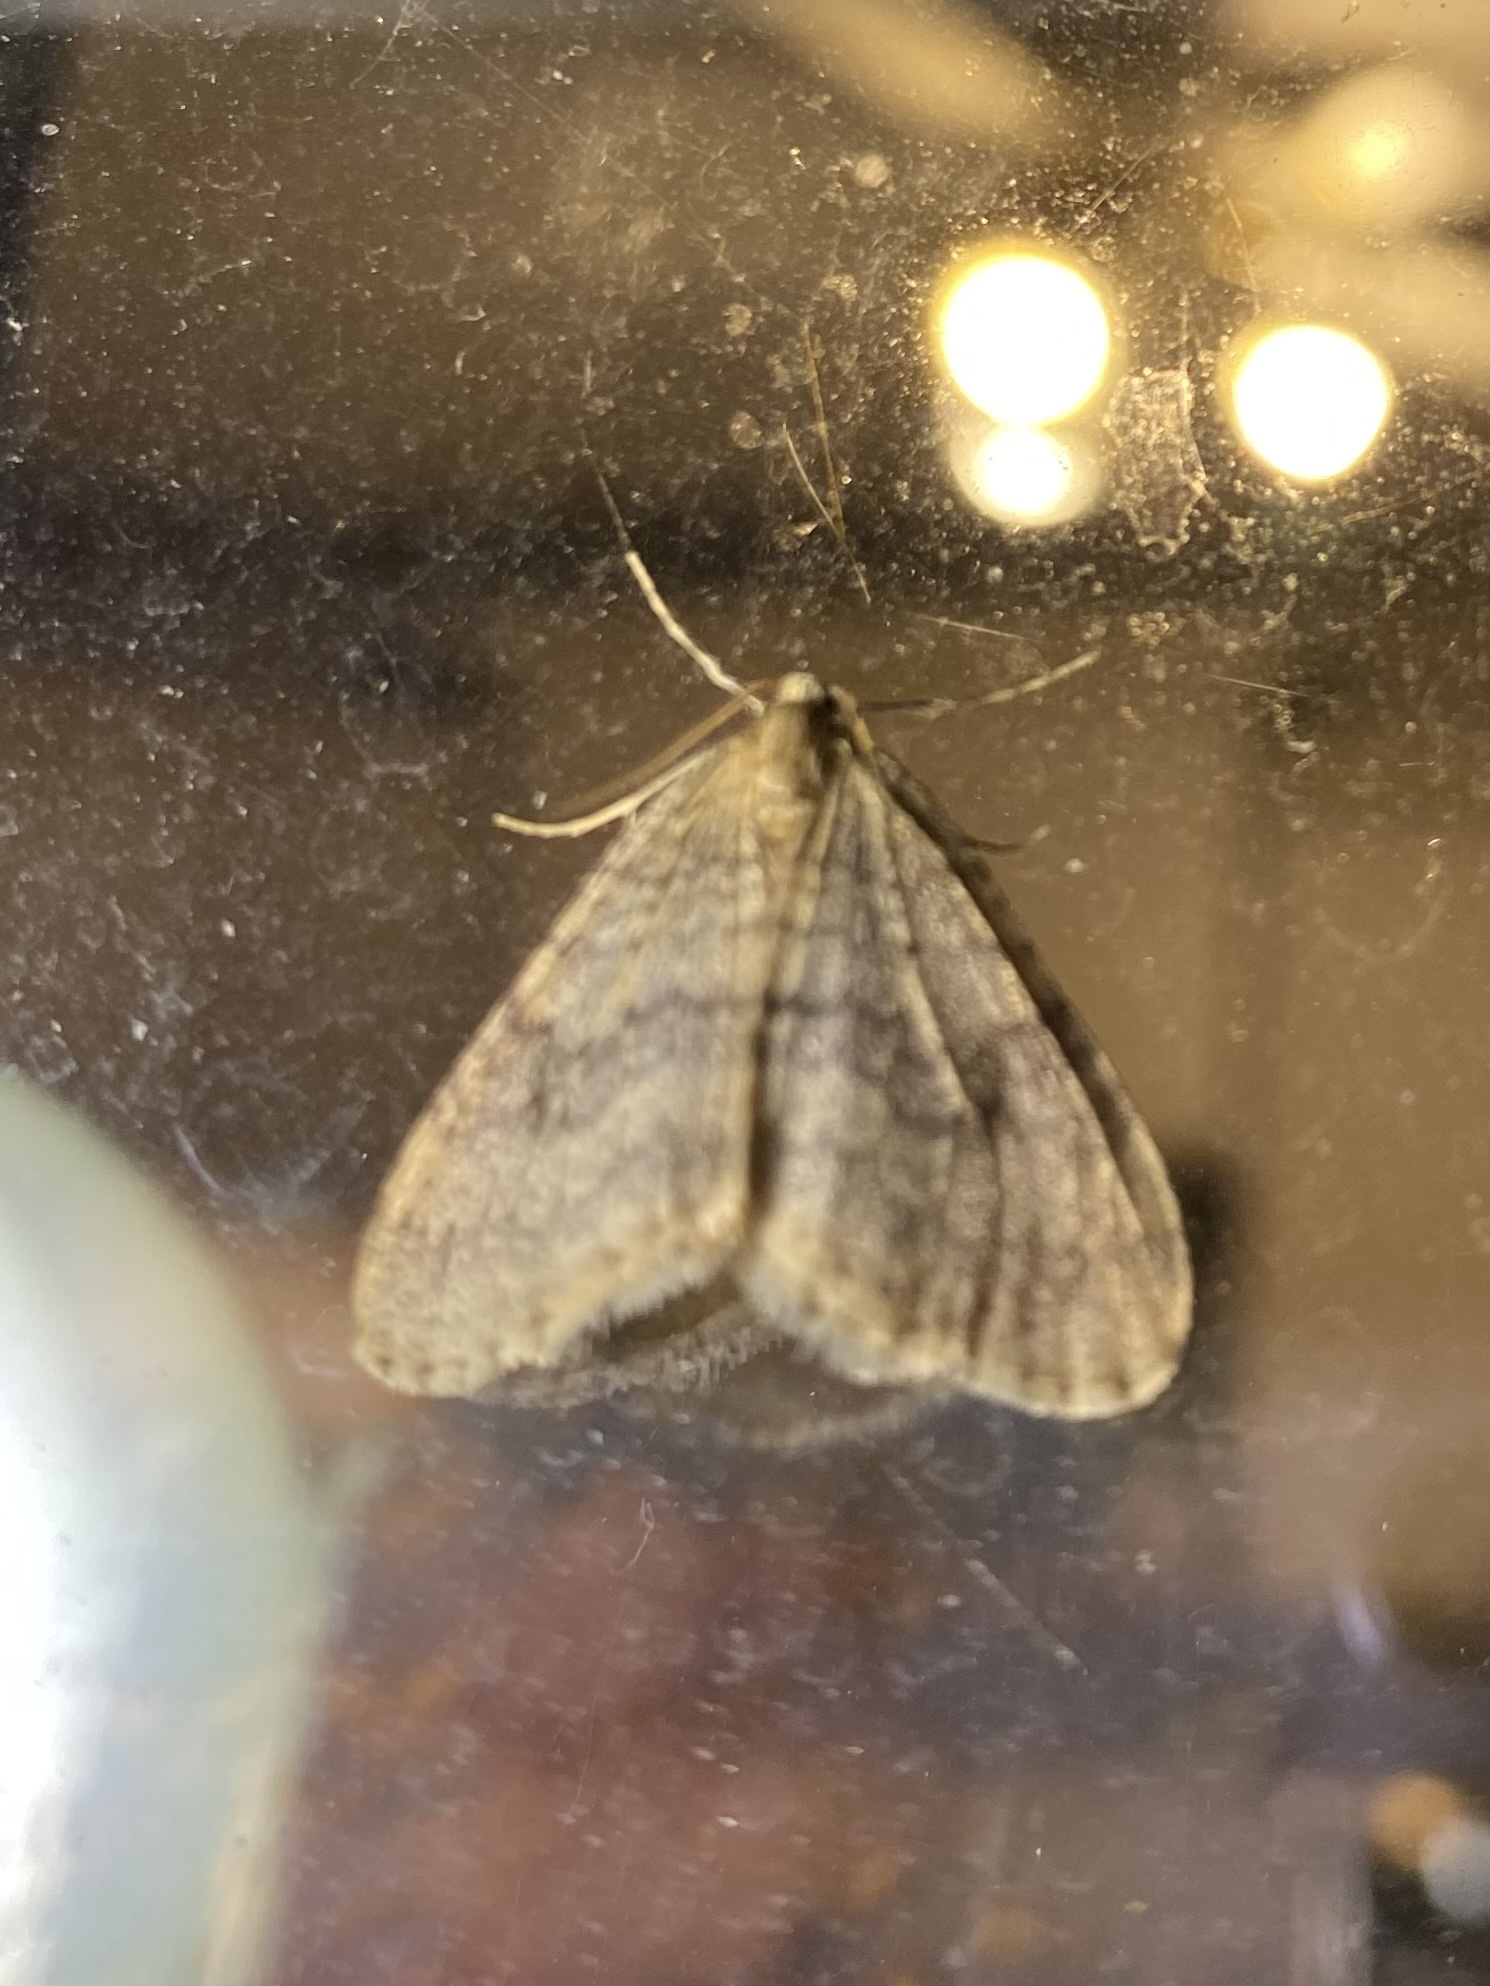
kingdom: Animalia
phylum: Arthropoda
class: Insecta
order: Lepidoptera
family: Geometridae
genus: Operophtera
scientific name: Operophtera brumata
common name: Winter moth
